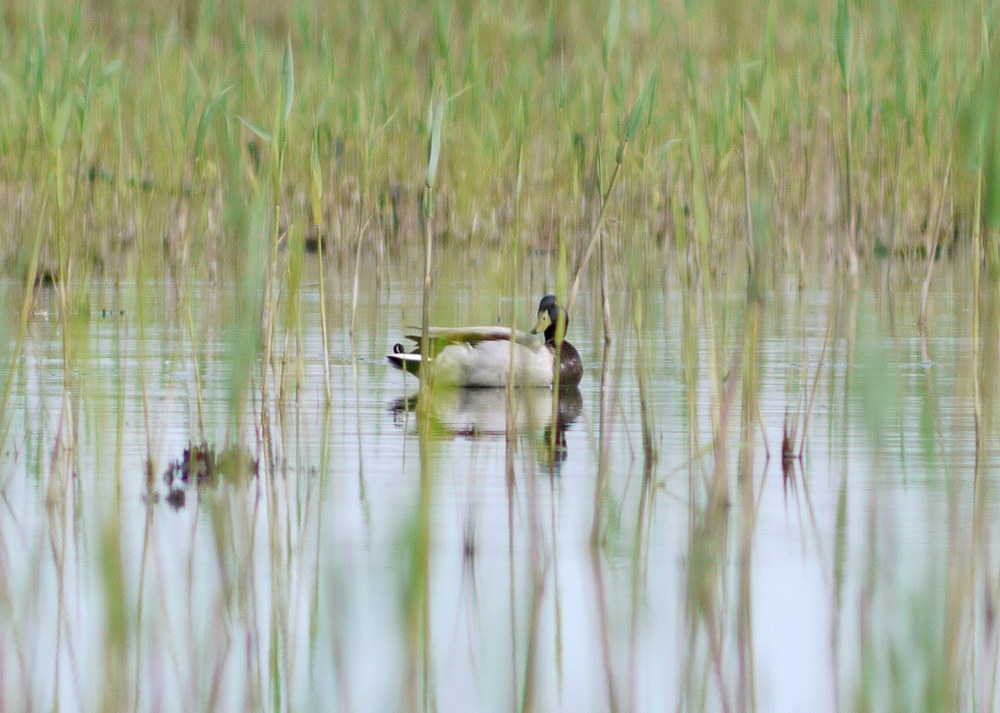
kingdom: Animalia
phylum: Chordata
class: Aves
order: Anseriformes
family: Anatidae
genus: Anas
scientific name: Anas platyrhynchos
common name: Mallard
